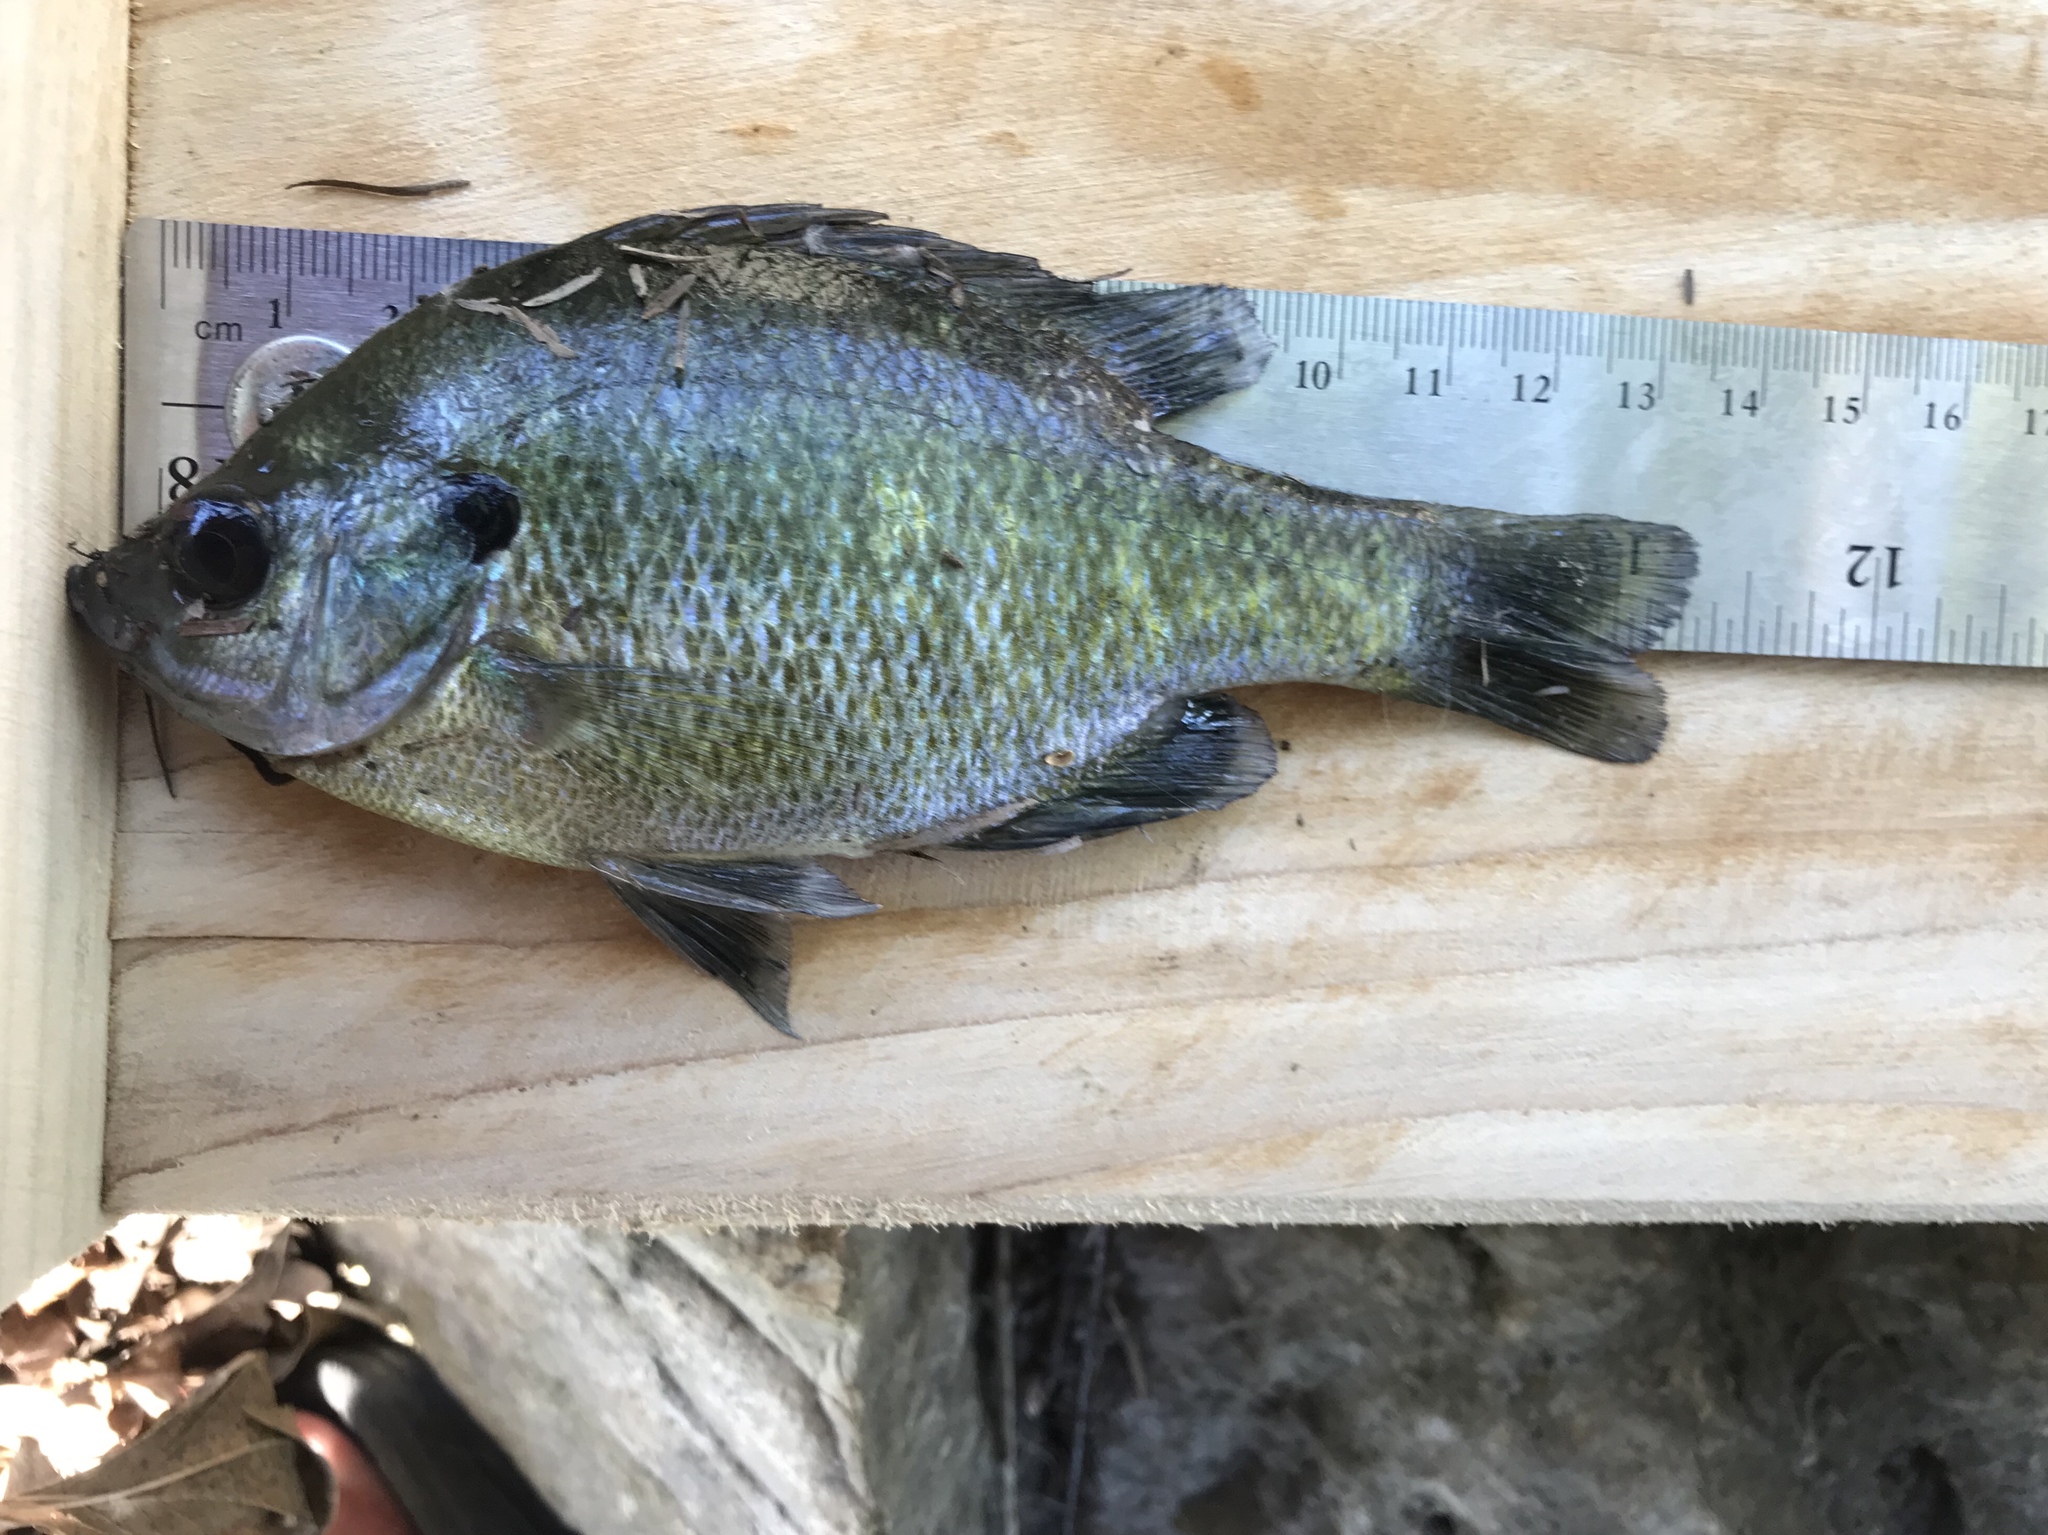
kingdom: Animalia
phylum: Chordata
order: Perciformes
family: Centrarchidae
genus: Lepomis
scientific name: Lepomis macrochirus
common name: Bluegill
